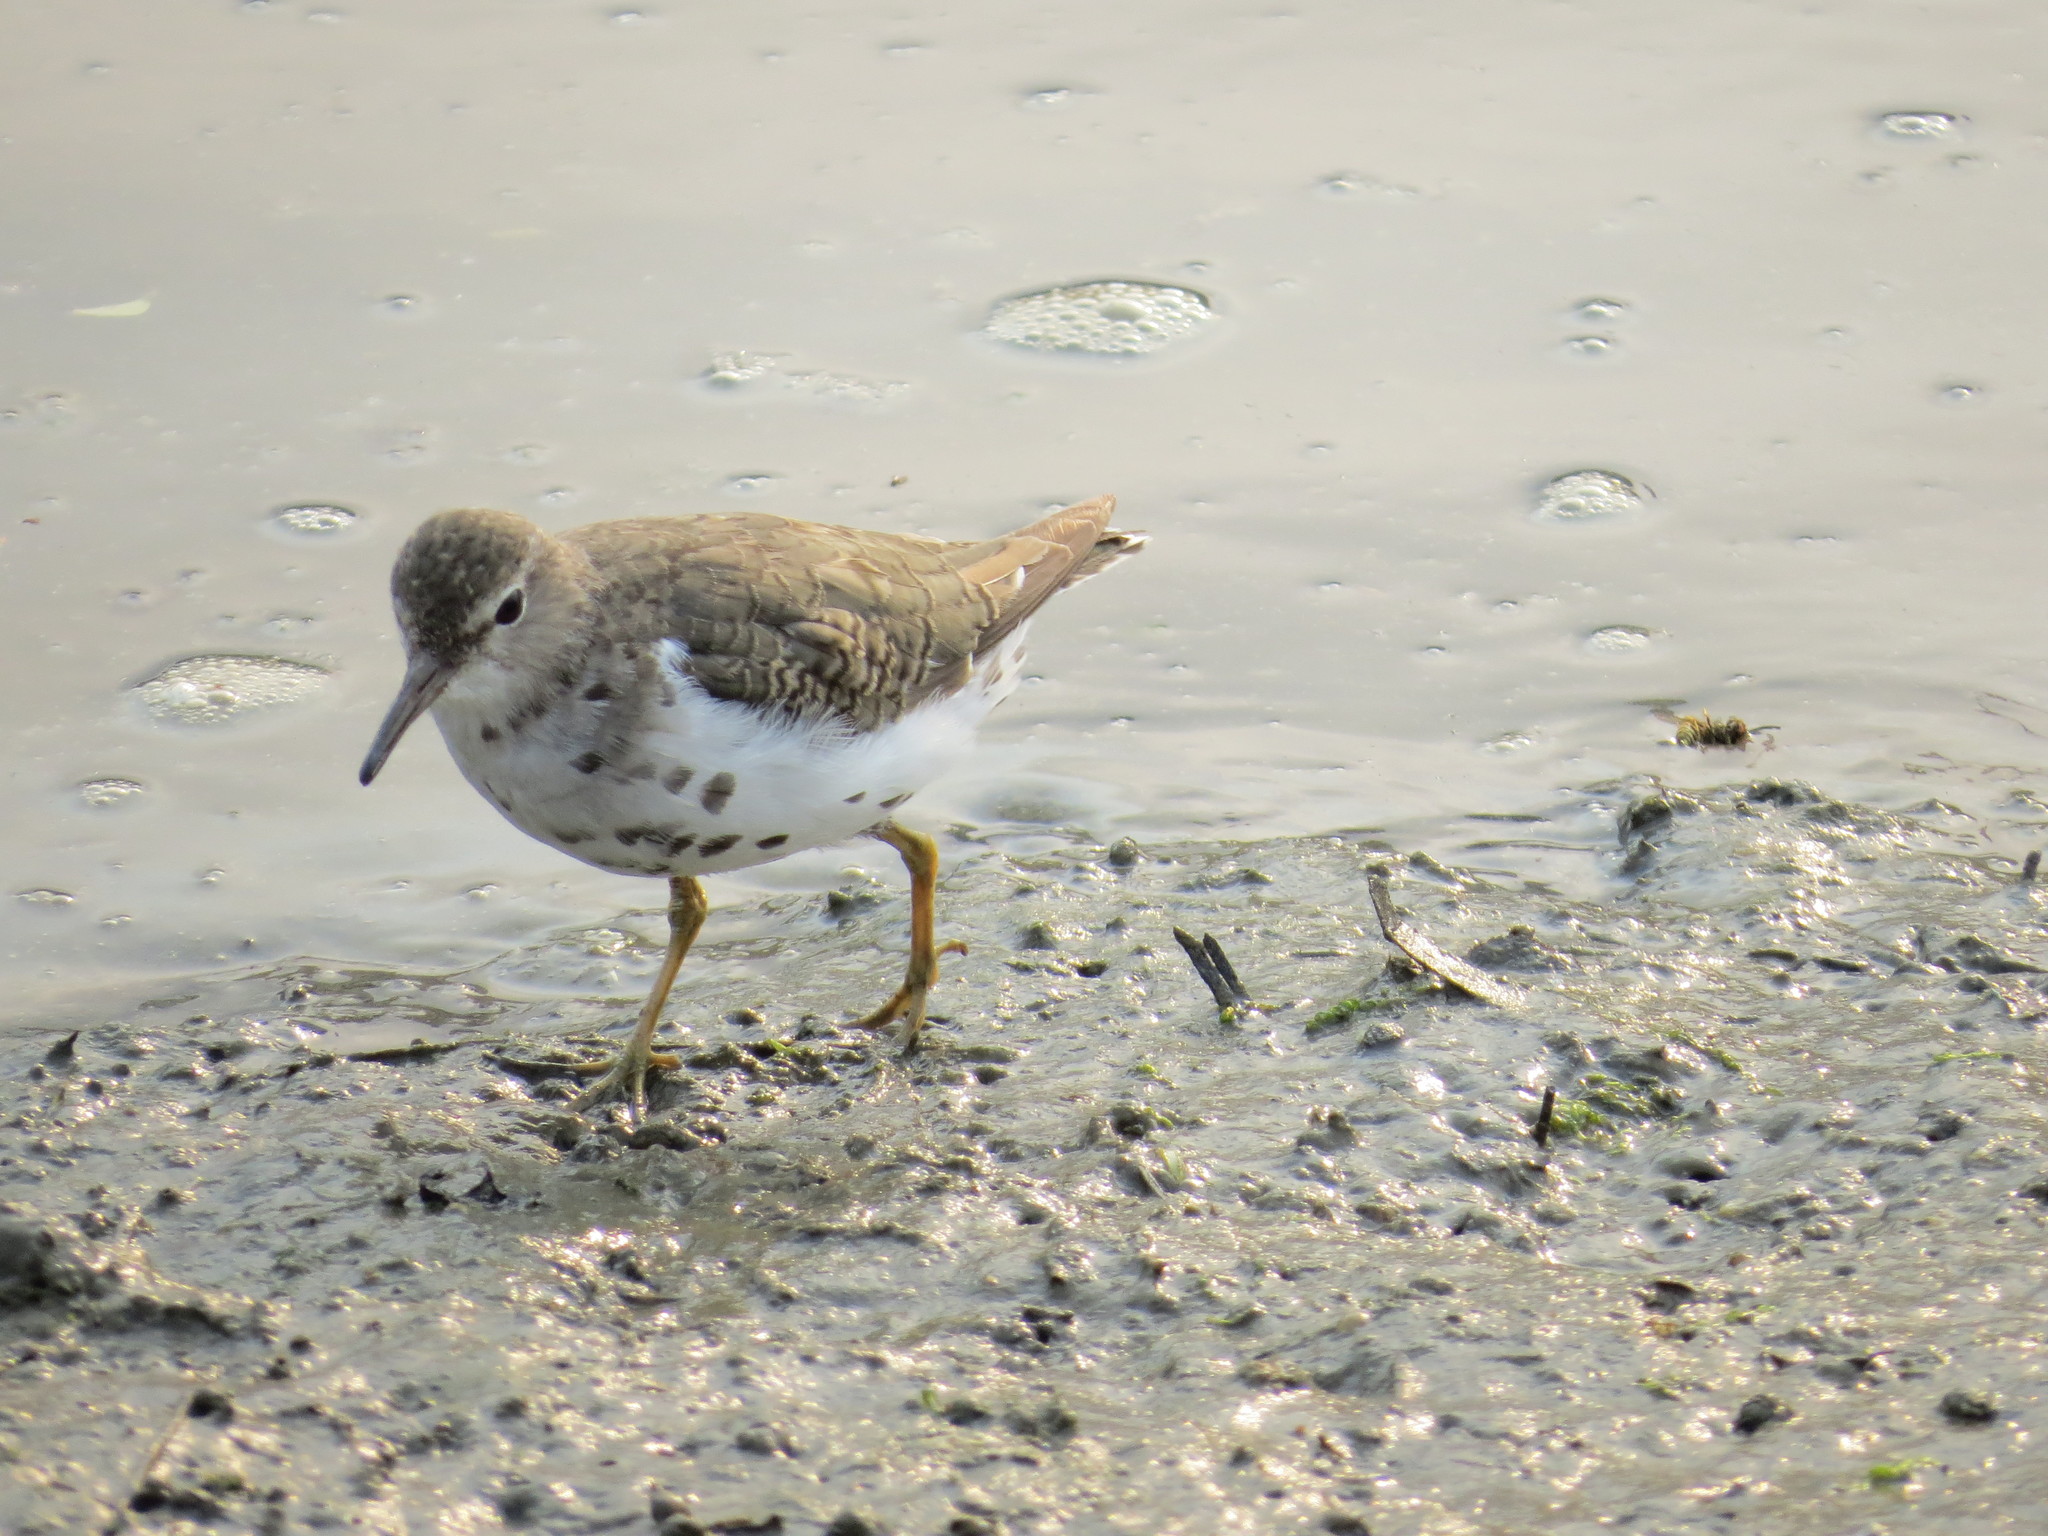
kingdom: Animalia
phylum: Chordata
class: Aves
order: Charadriiformes
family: Scolopacidae
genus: Actitis
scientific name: Actitis macularius
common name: Spotted sandpiper
